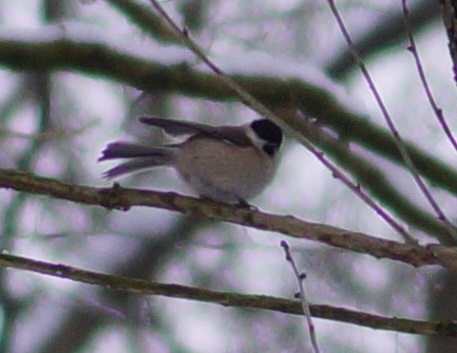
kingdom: Animalia
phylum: Chordata
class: Aves
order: Passeriformes
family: Paridae
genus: Poecile
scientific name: Poecile palustris
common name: Marsh tit
